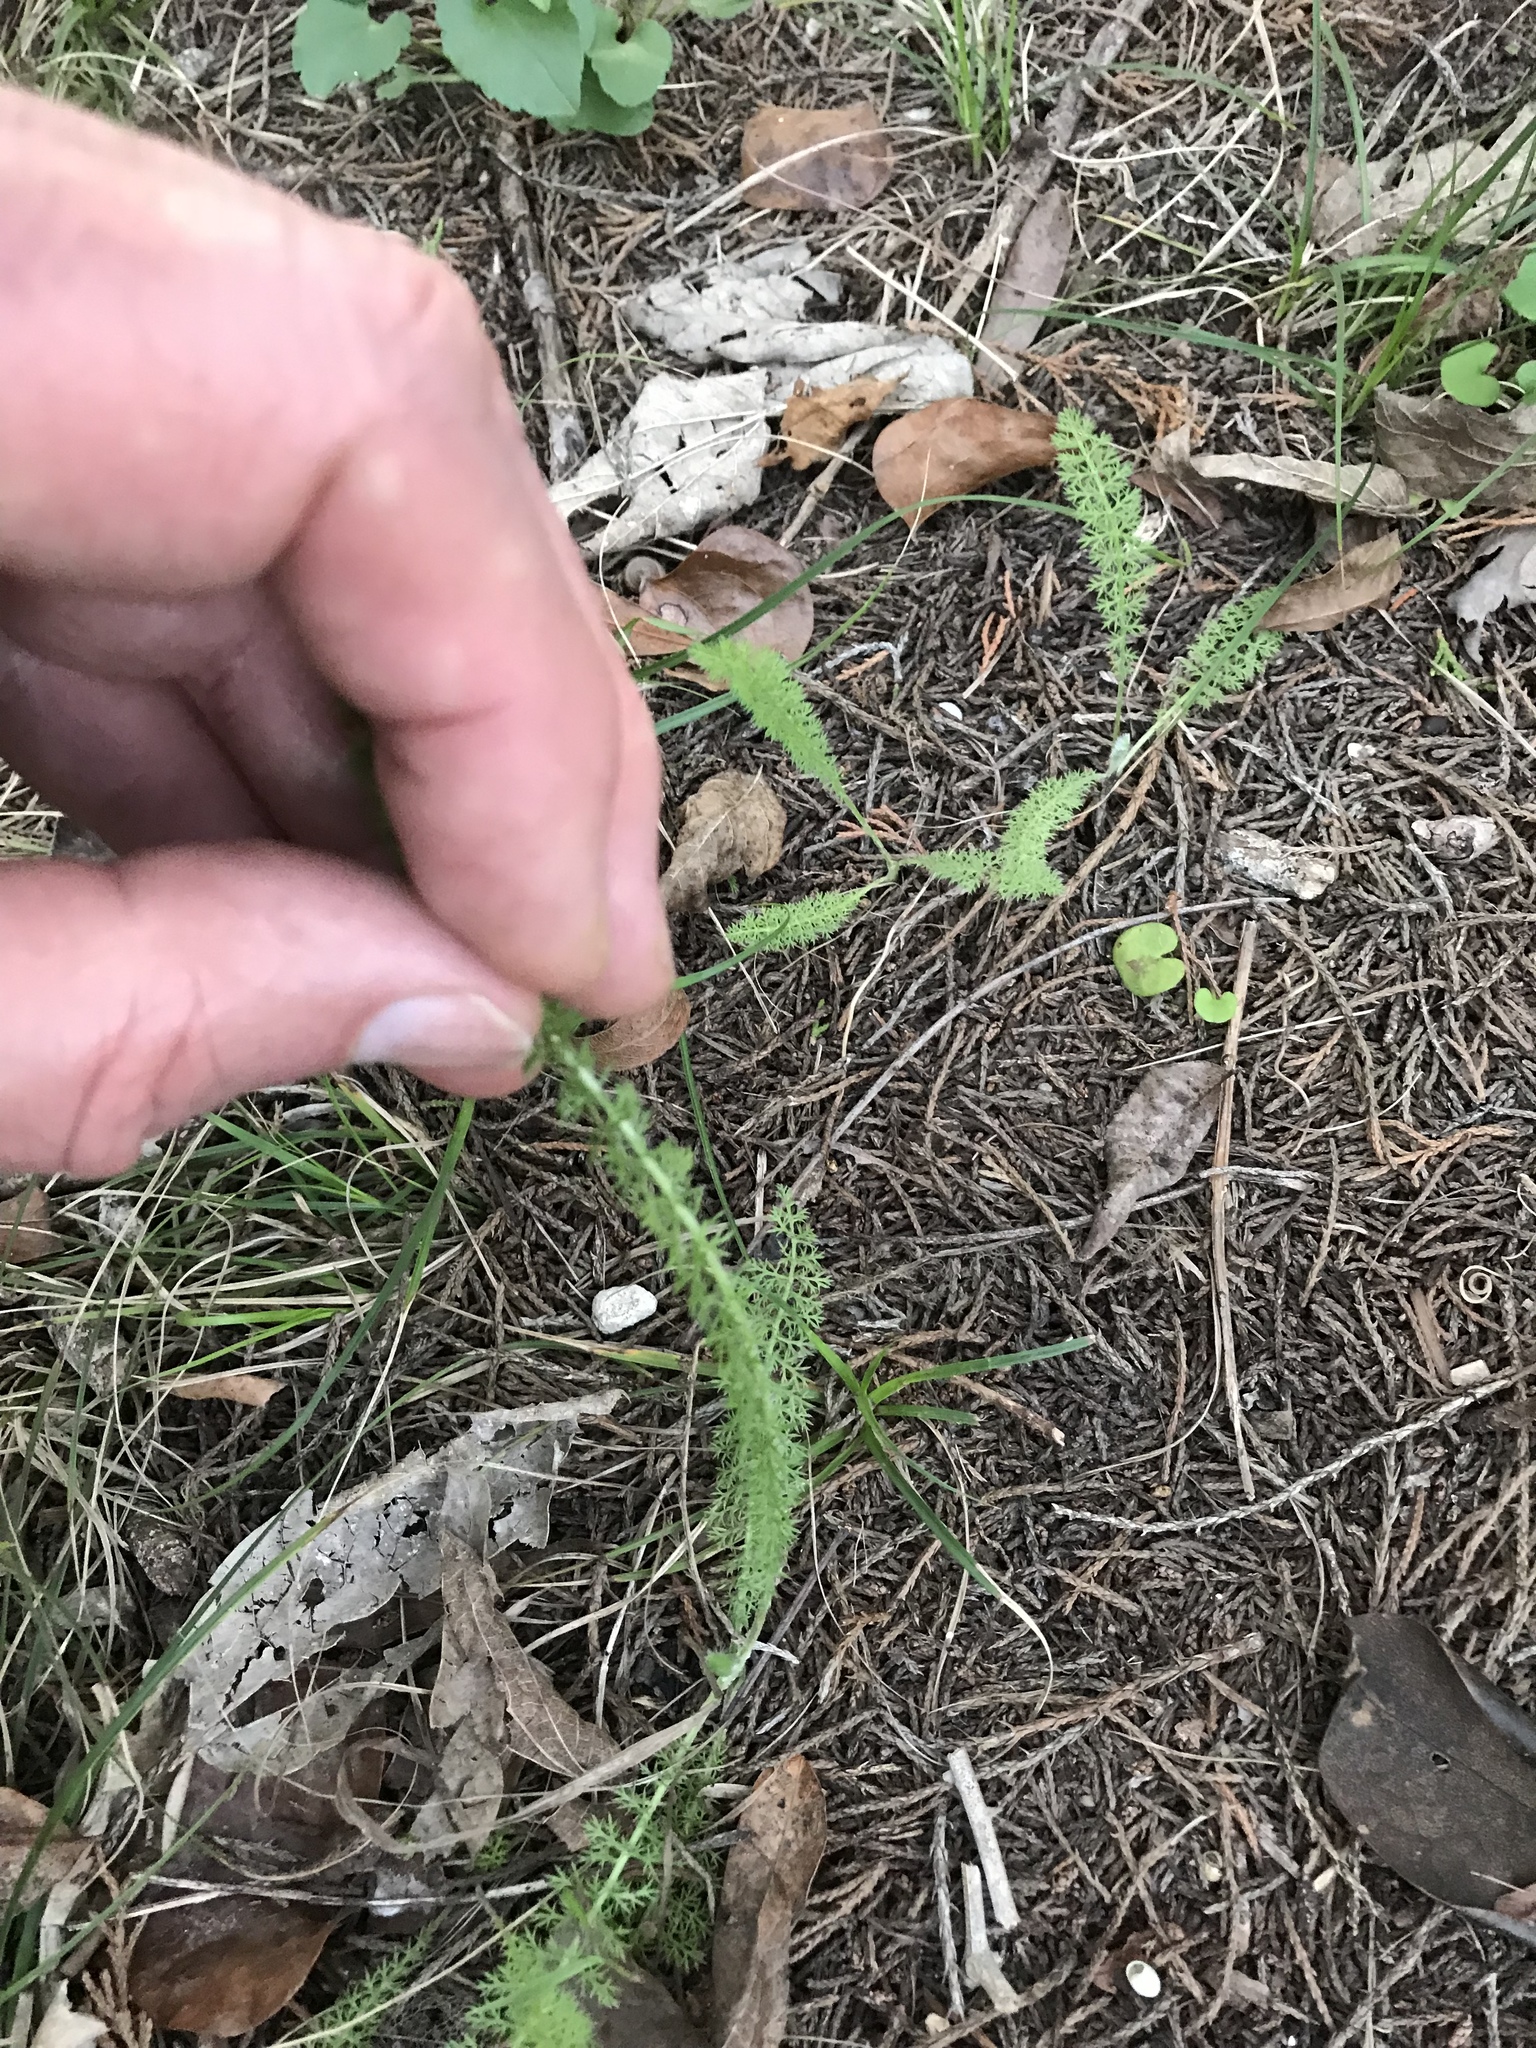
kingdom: Plantae
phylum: Tracheophyta
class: Magnoliopsida
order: Asterales
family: Asteraceae
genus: Achillea
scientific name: Achillea millefolium
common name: Yarrow
